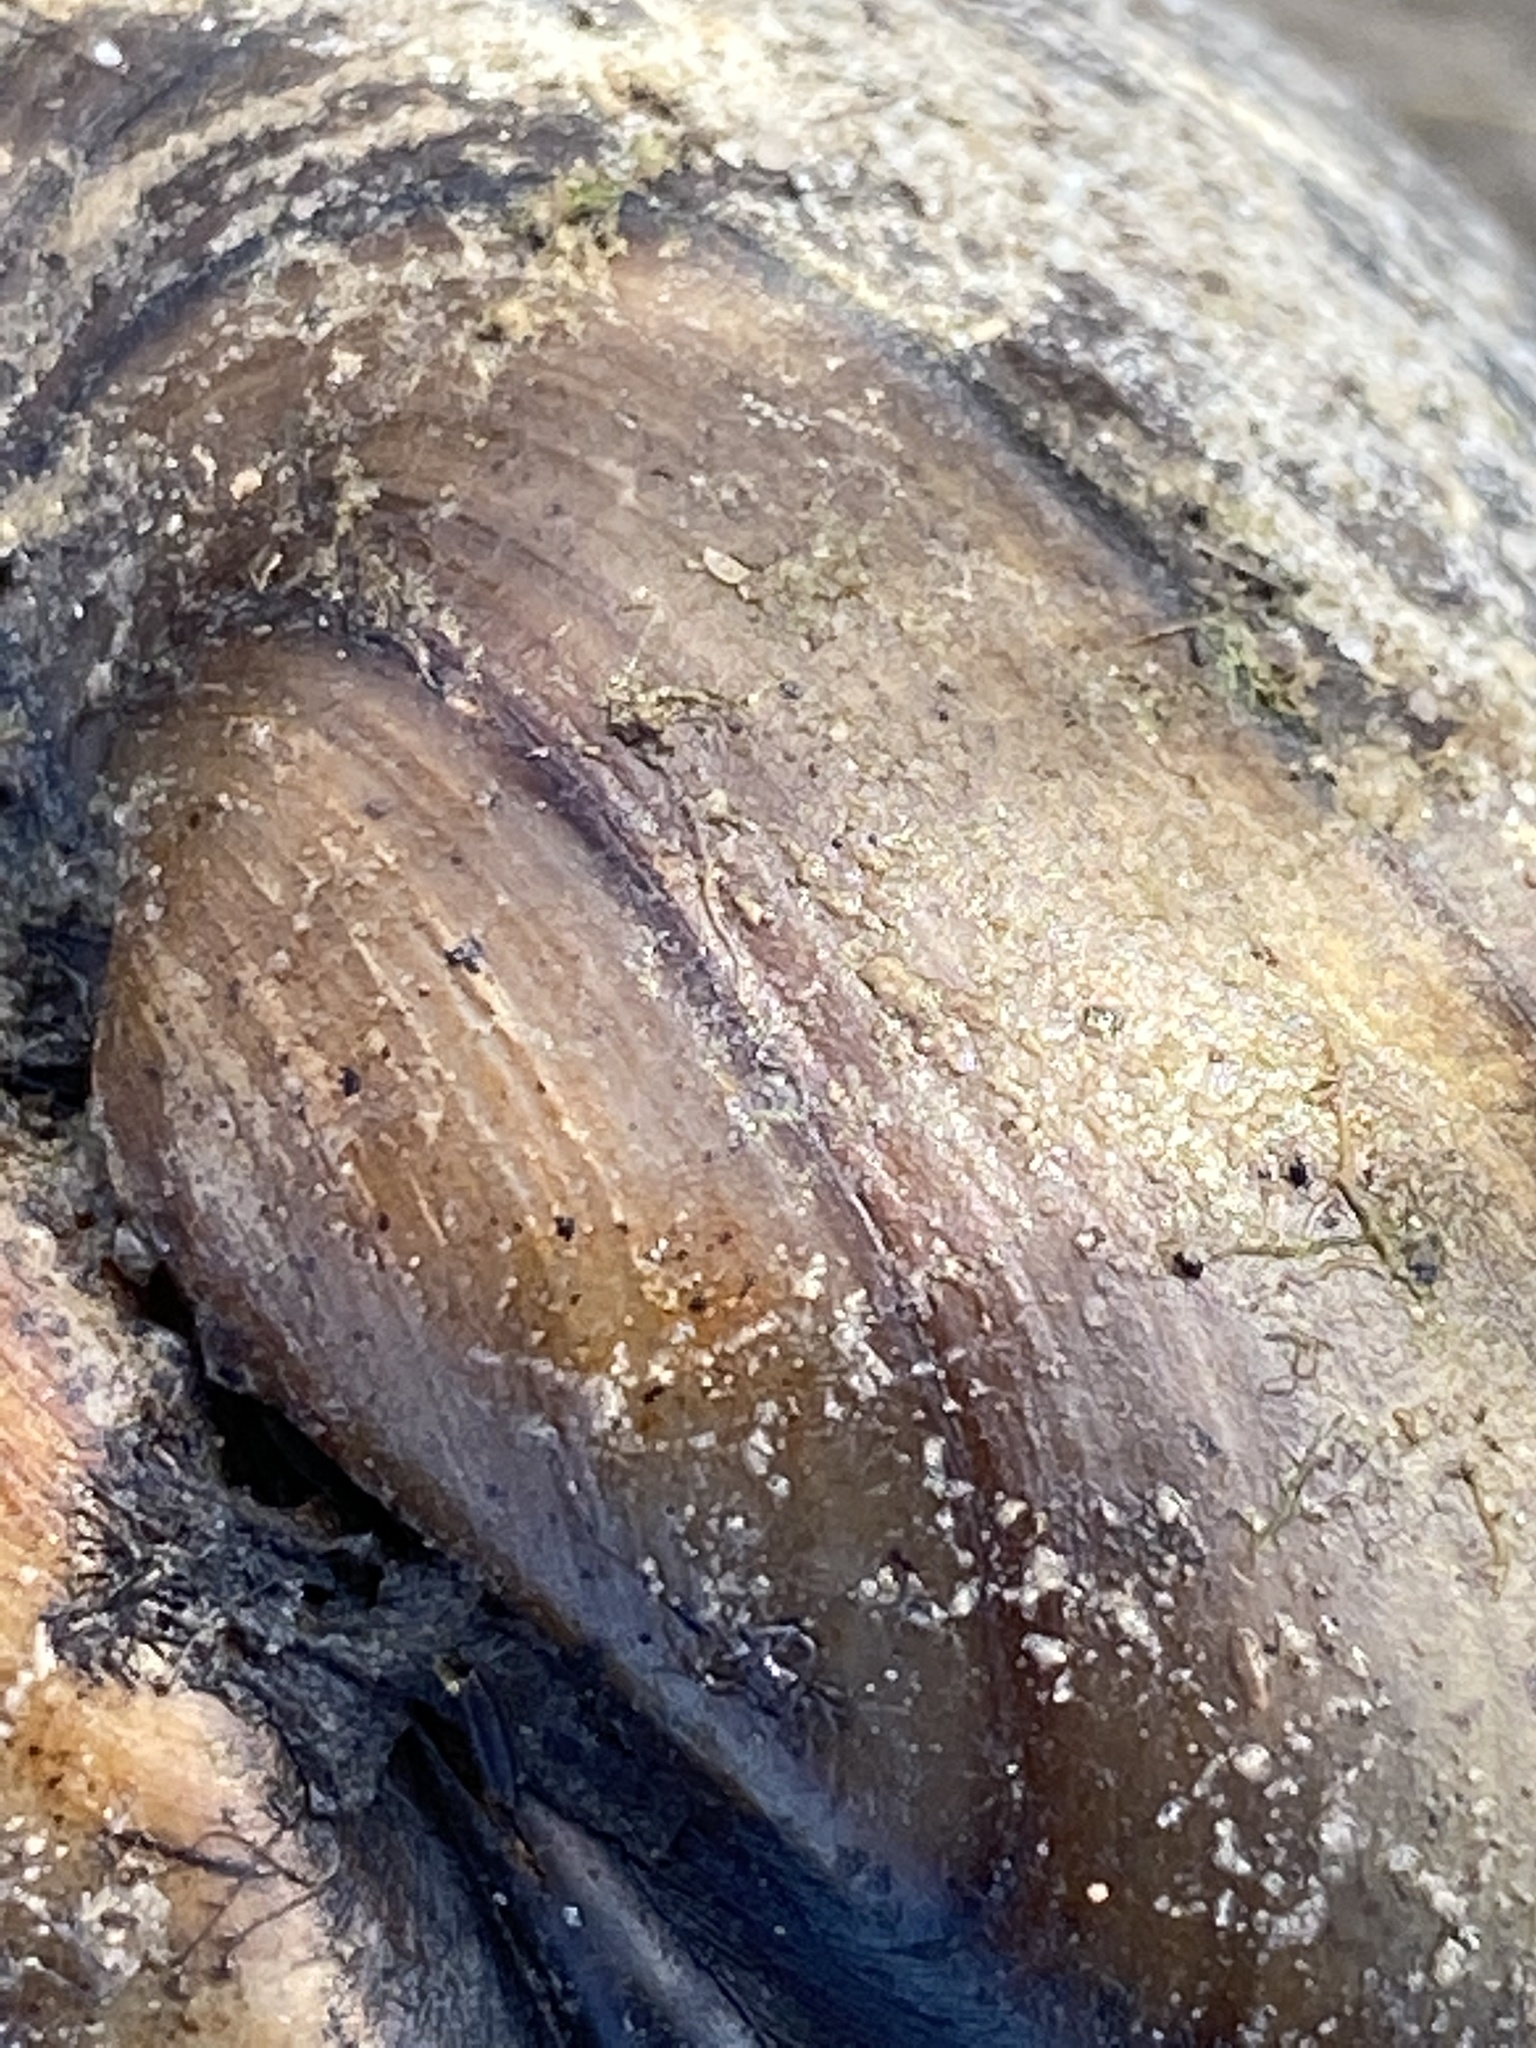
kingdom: Animalia
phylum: Mollusca
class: Bivalvia
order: Unionida
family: Unionidae
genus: Unio
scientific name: Unio pictorum
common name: Painter's mussel
